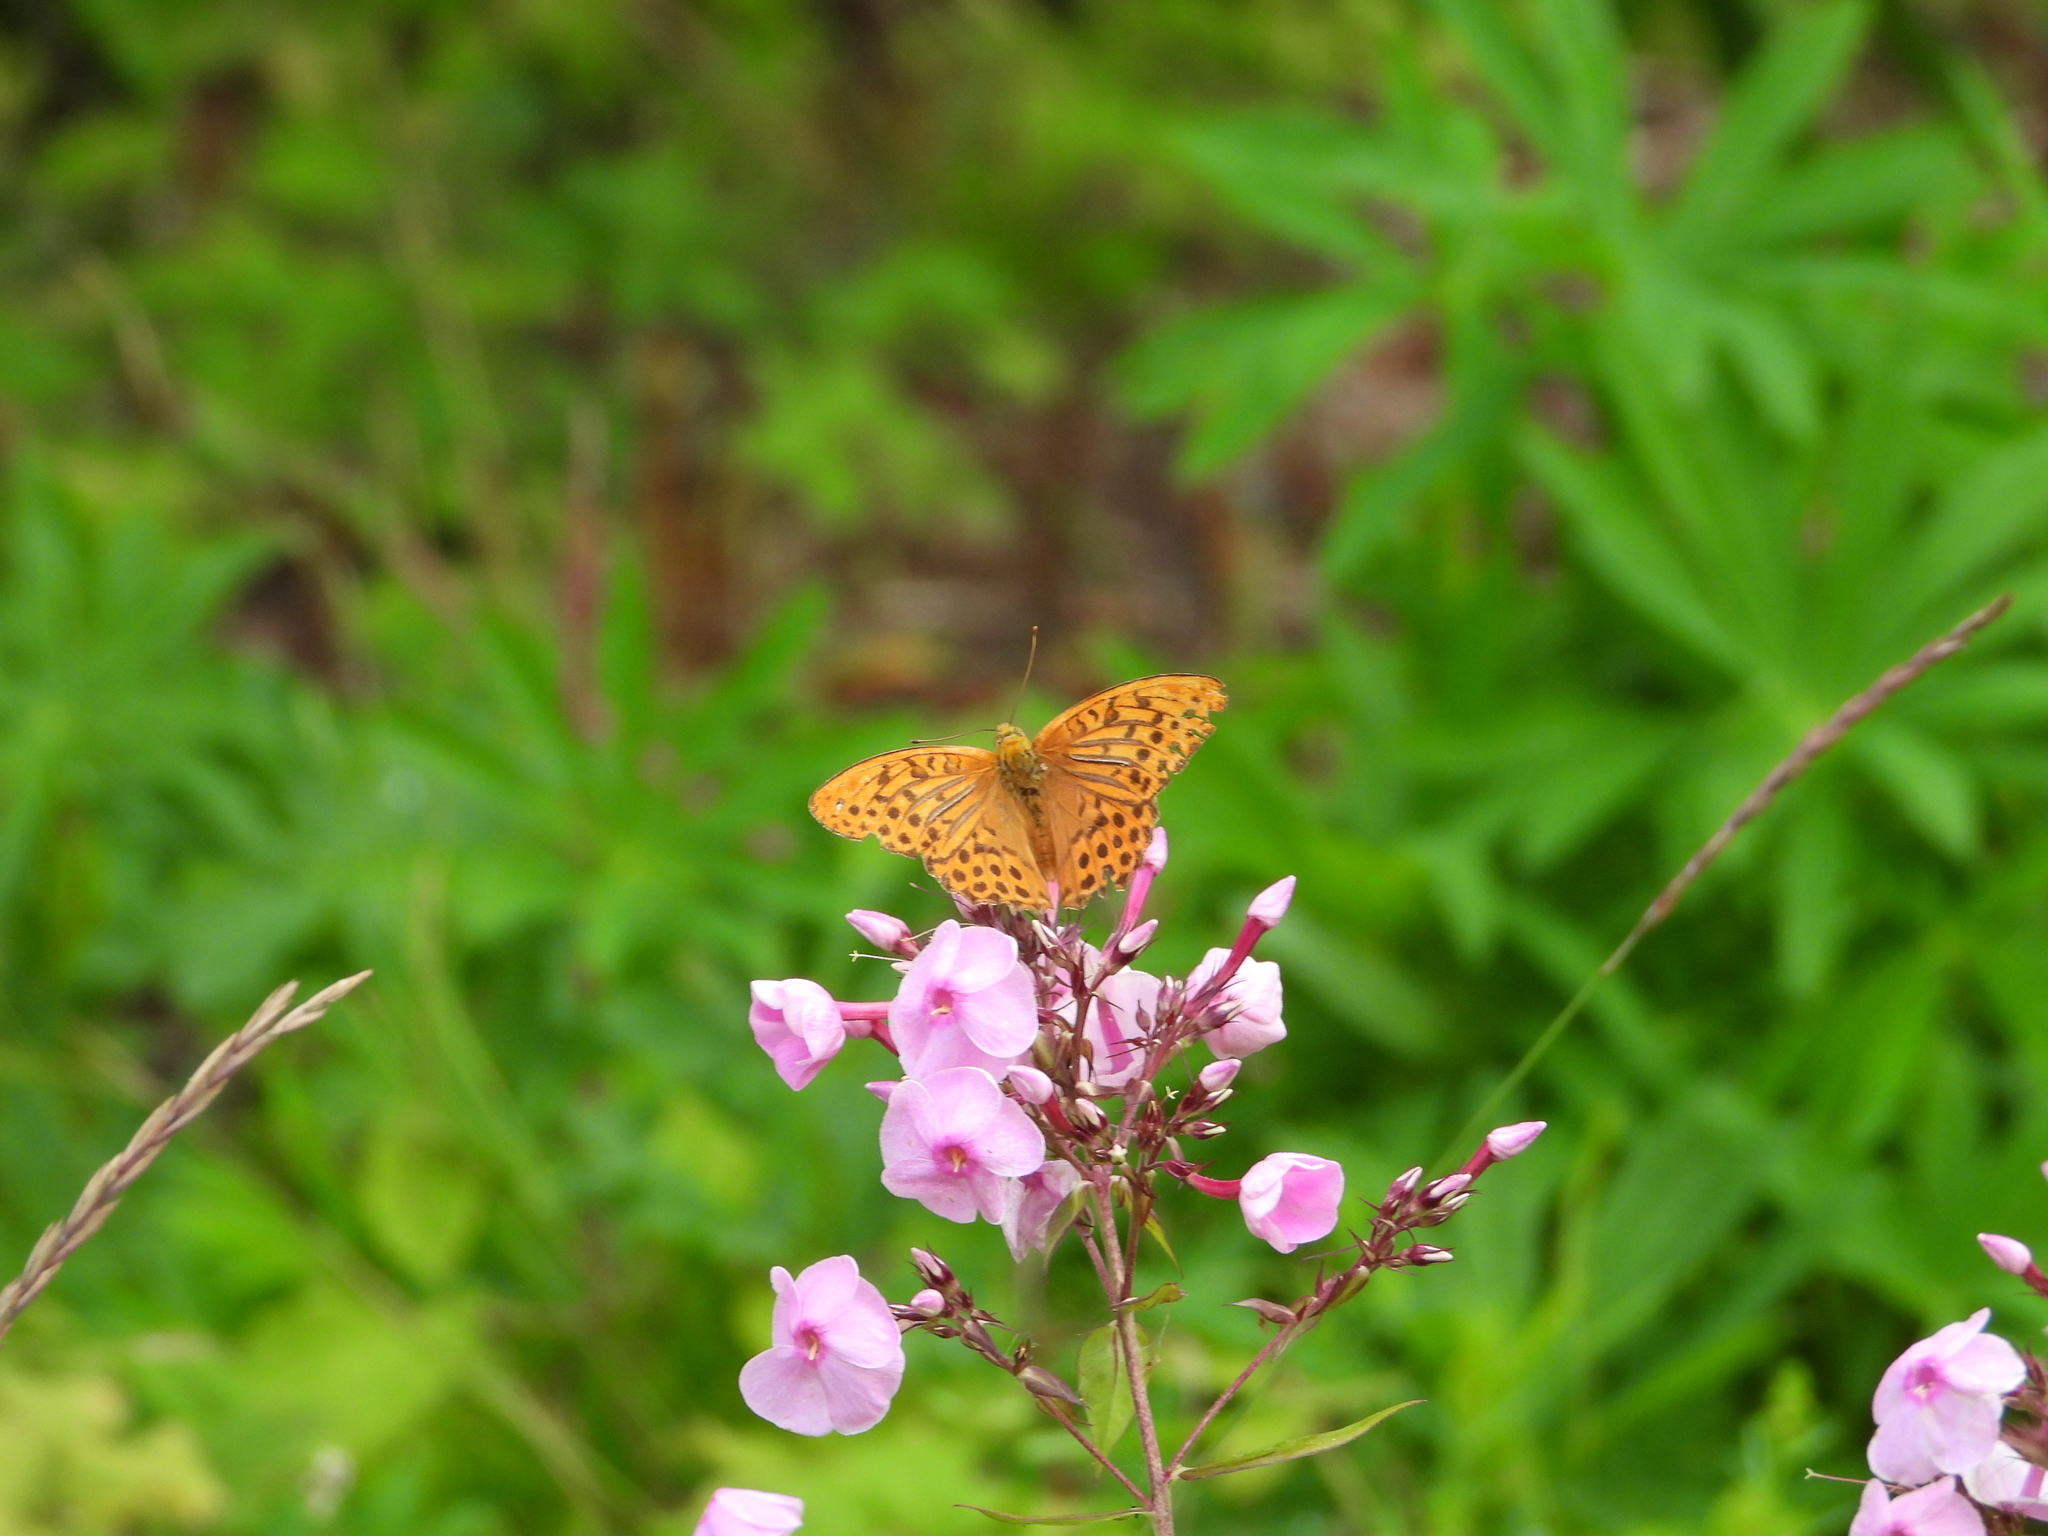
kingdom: Animalia
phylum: Arthropoda
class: Insecta
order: Lepidoptera
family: Nymphalidae
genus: Argynnis
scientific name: Argynnis paphia
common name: Silver-washed fritillary
